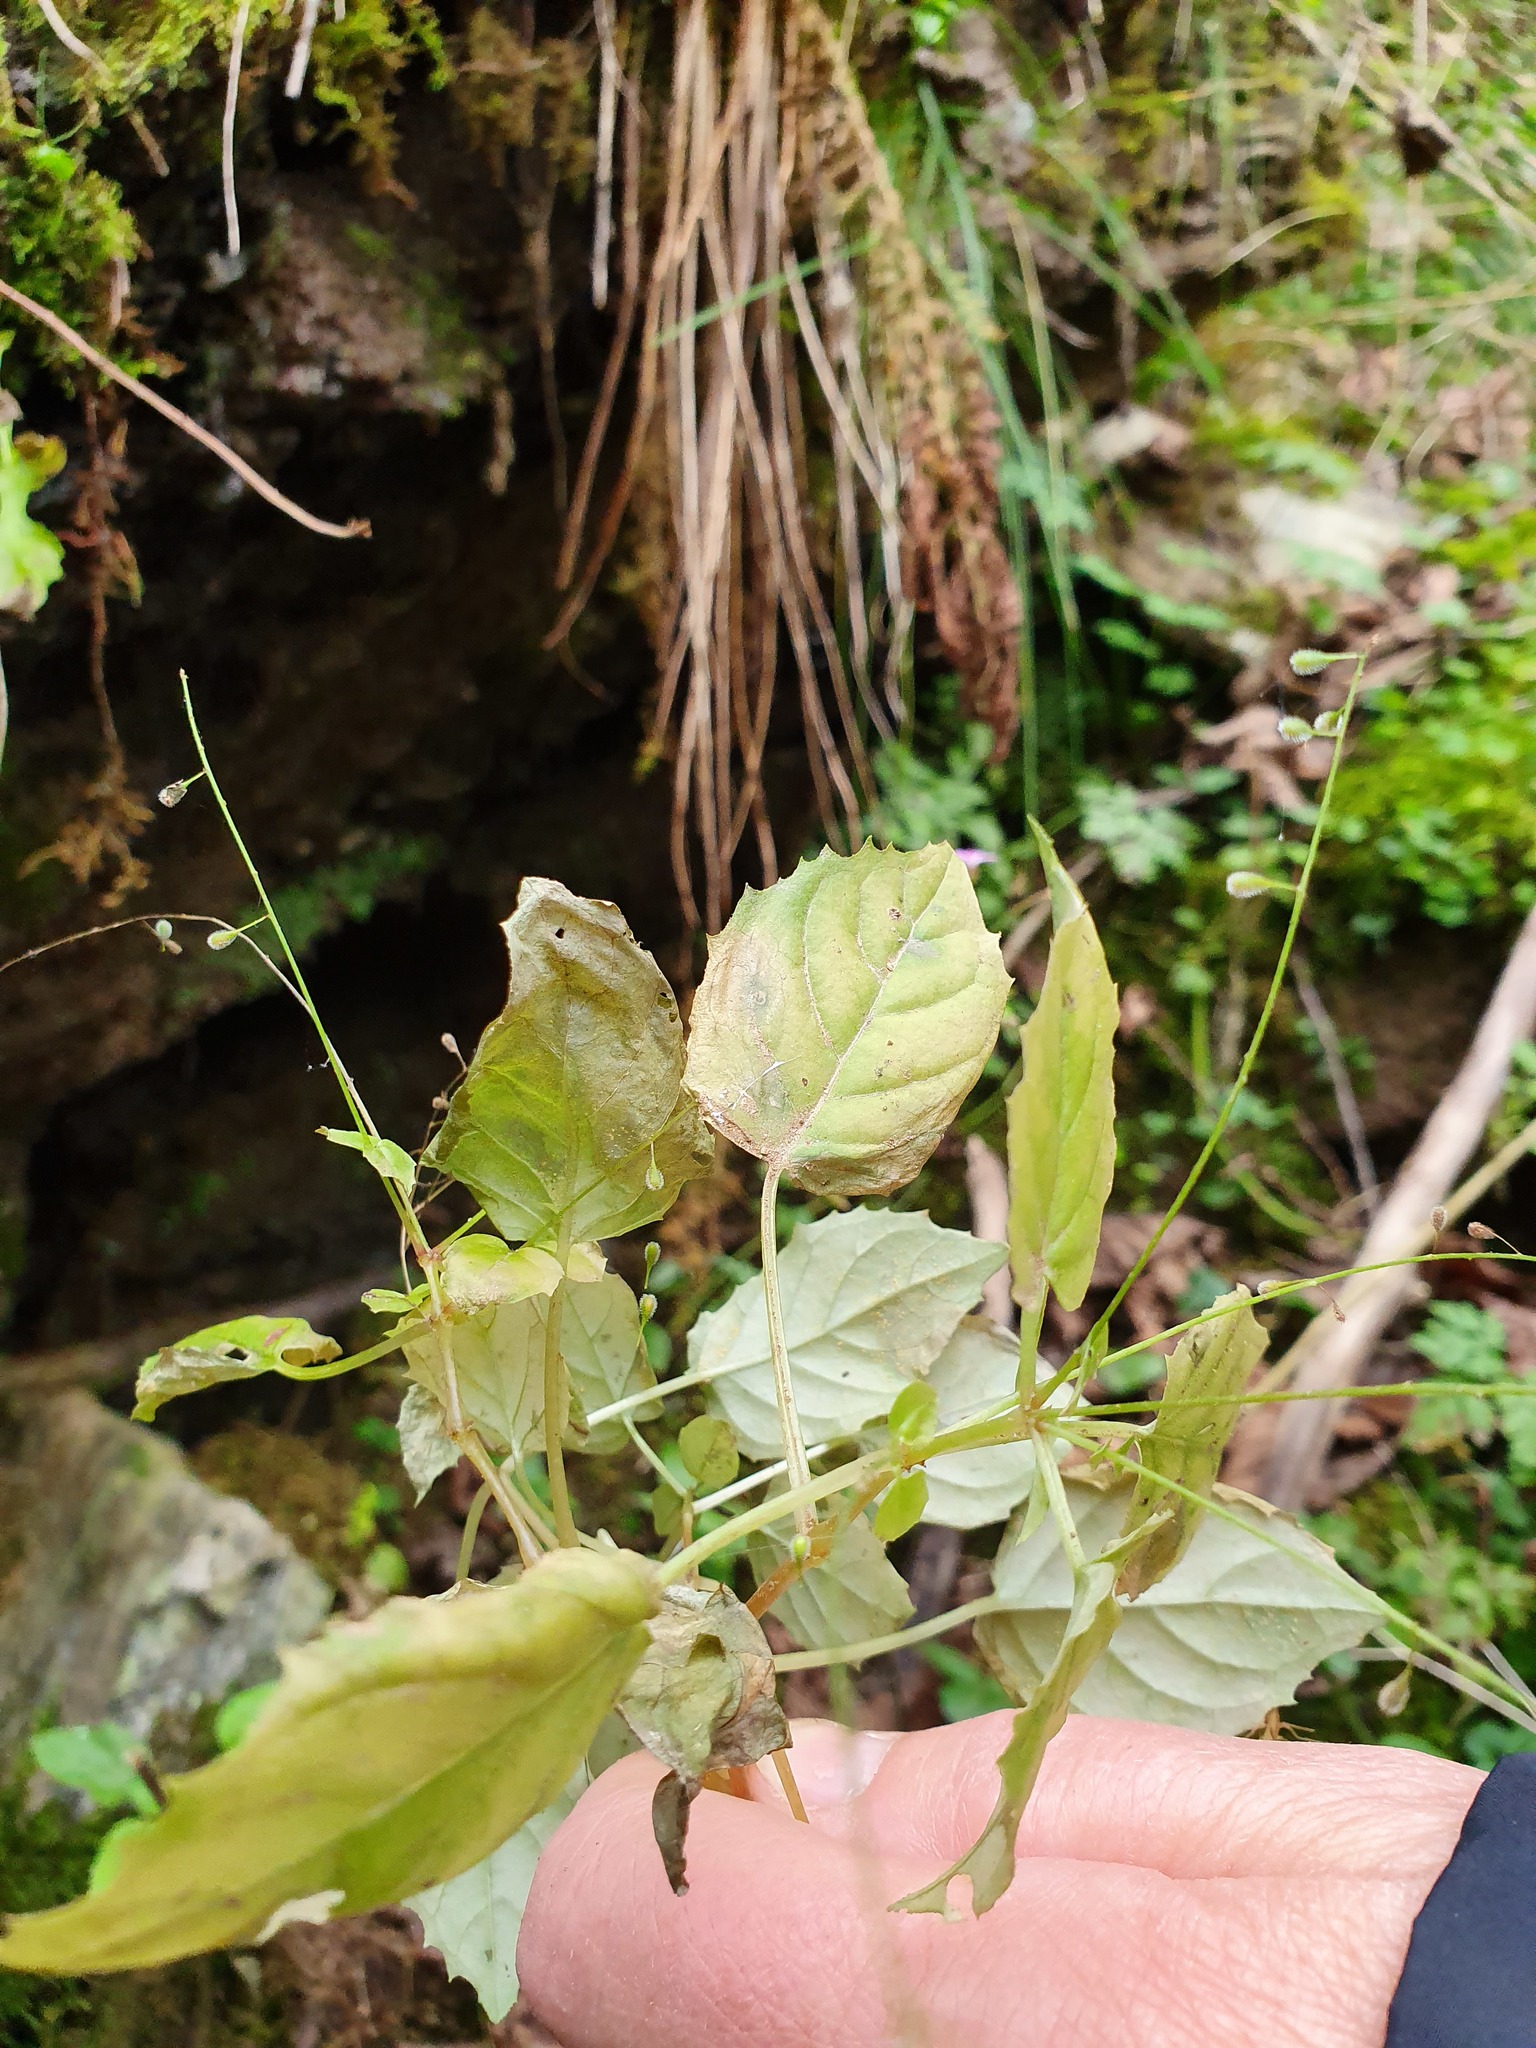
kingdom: Plantae
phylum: Tracheophyta
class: Magnoliopsida
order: Myrtales
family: Onagraceae
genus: Circaea
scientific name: Circaea alpina
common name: Alpine enchanter's-nightshade
